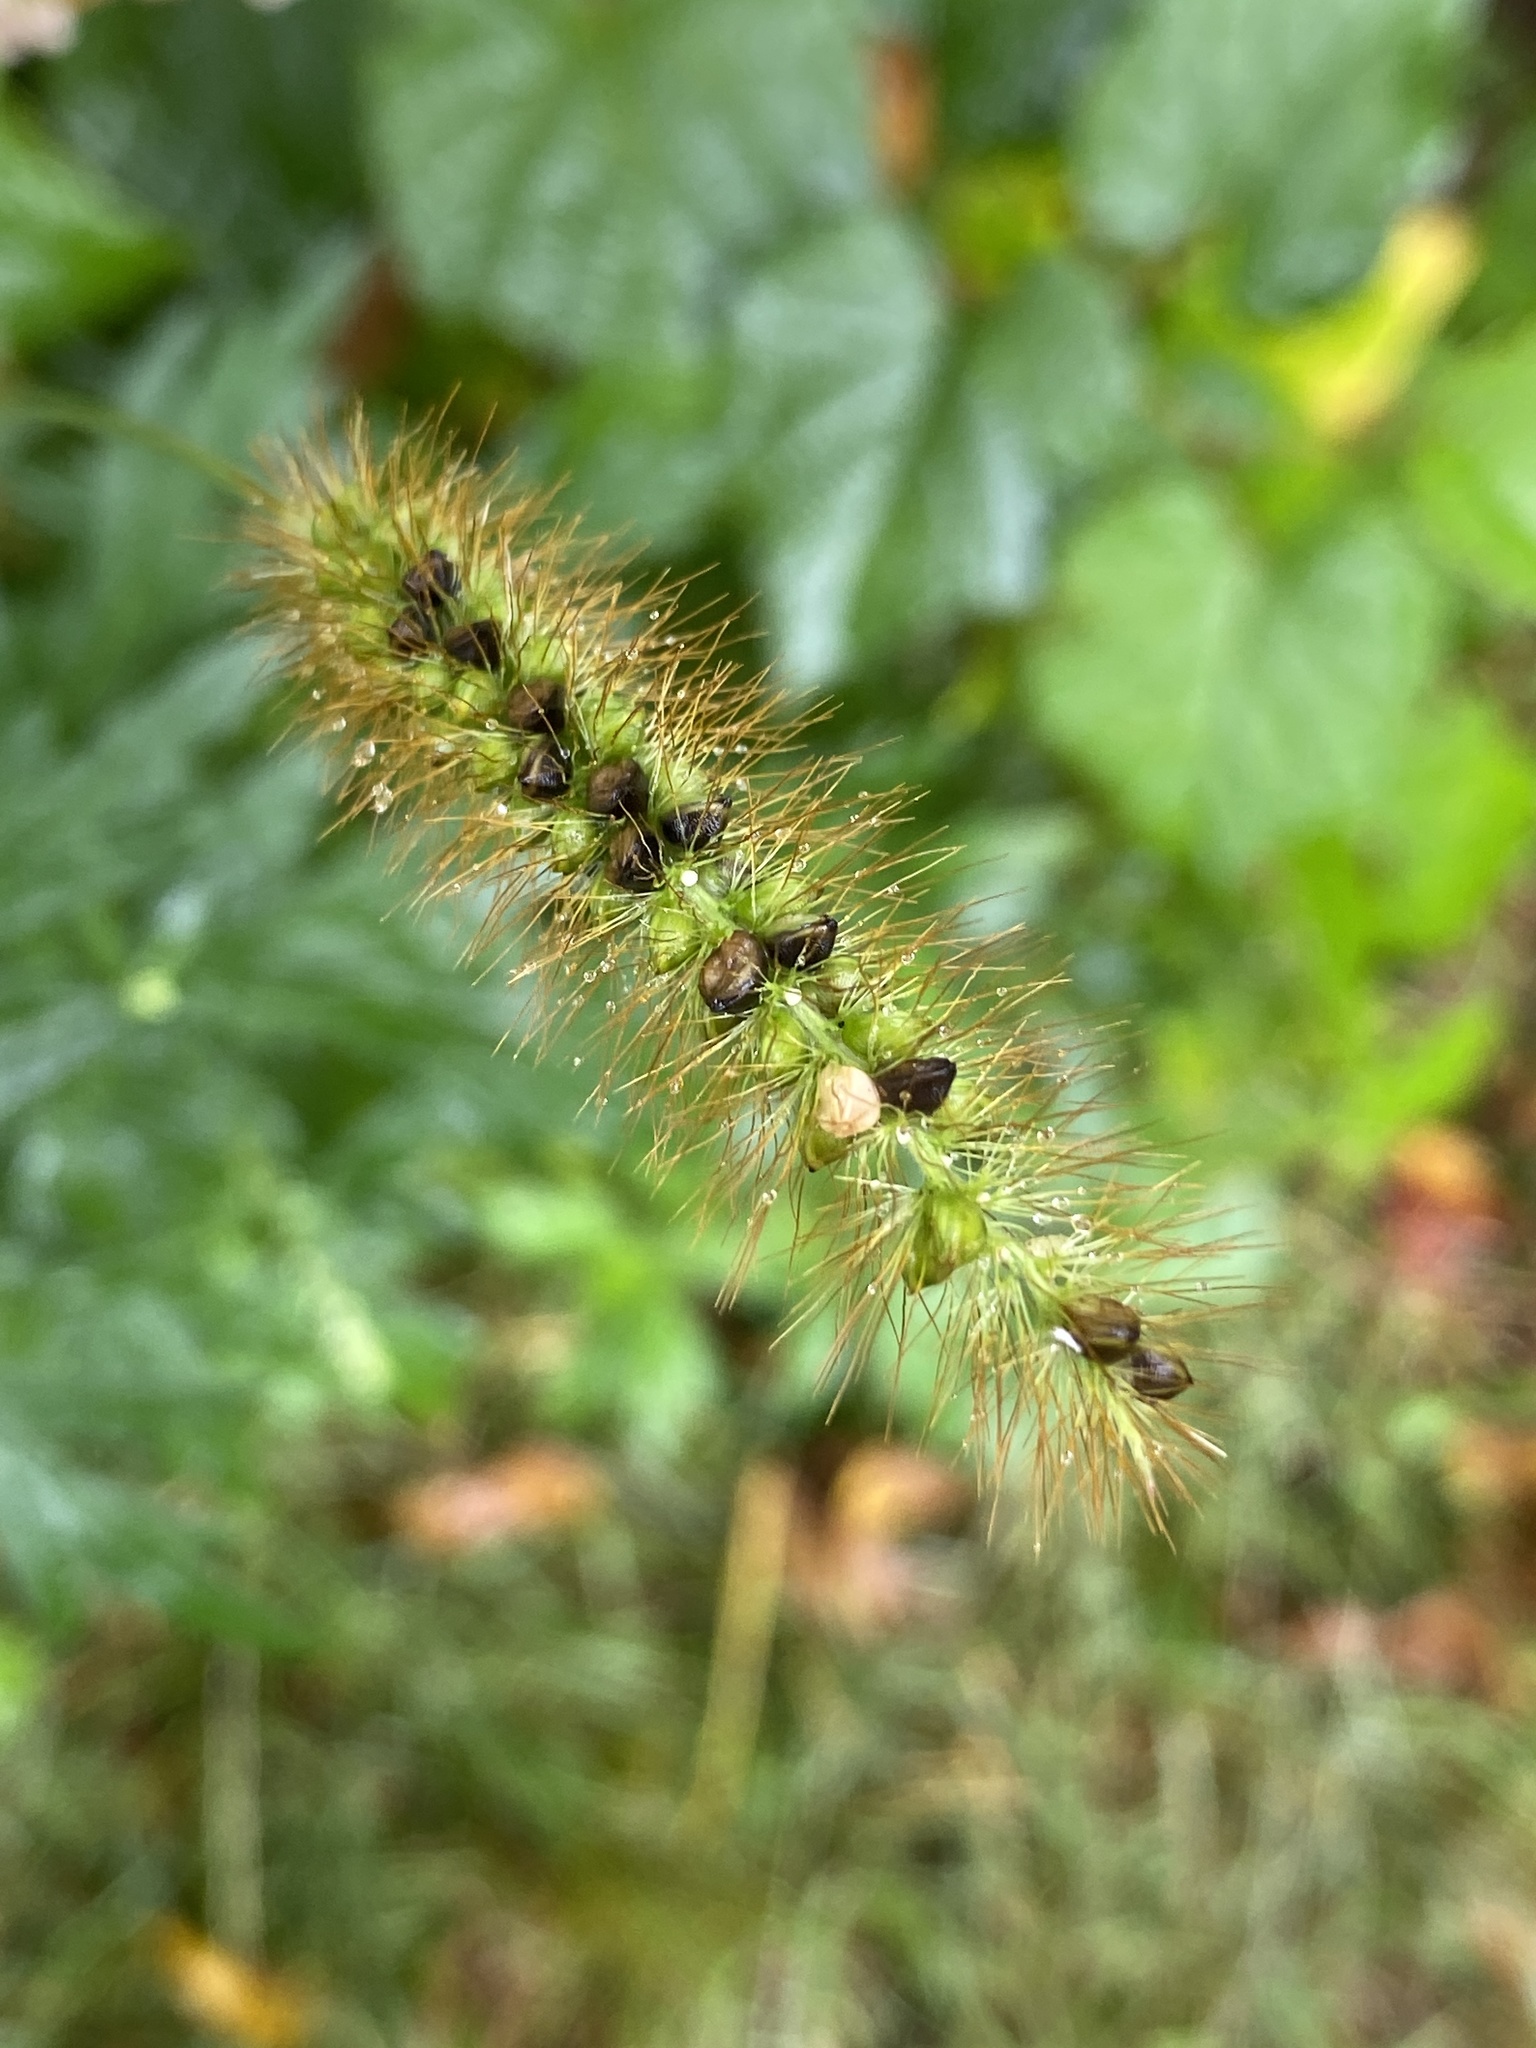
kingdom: Plantae
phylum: Tracheophyta
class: Liliopsida
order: Poales
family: Poaceae
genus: Setaria
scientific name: Setaria pumila
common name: Yellow bristle-grass
